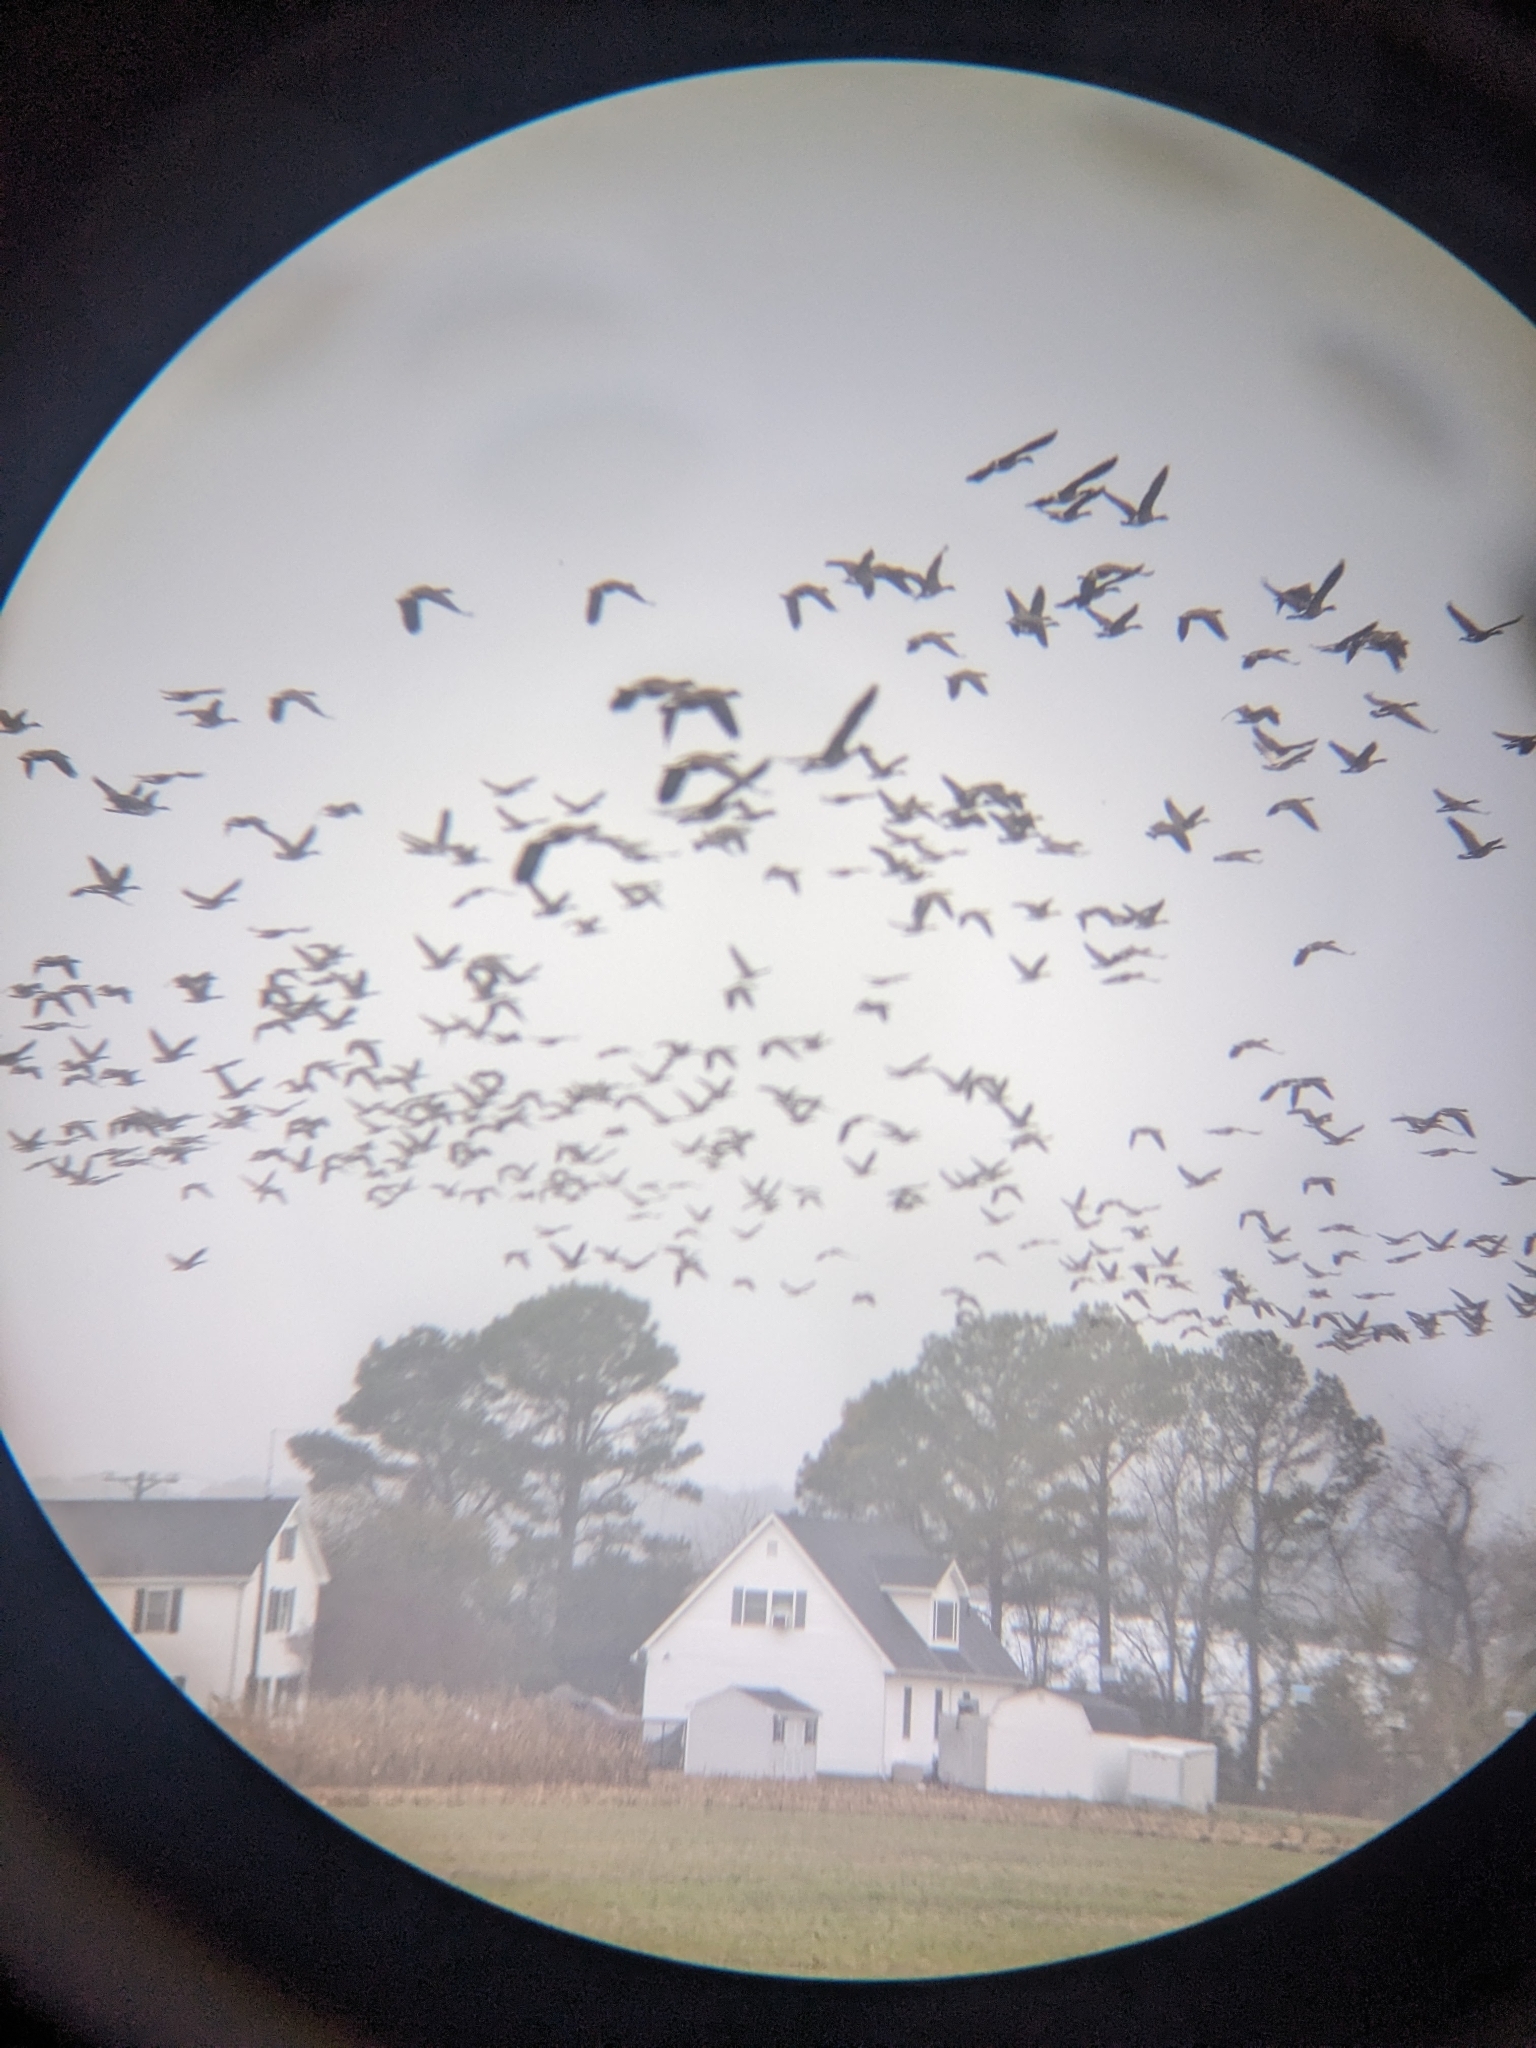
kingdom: Animalia
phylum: Chordata
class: Aves
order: Anseriformes
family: Anatidae
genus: Branta
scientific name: Branta canadensis
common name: Canada goose
